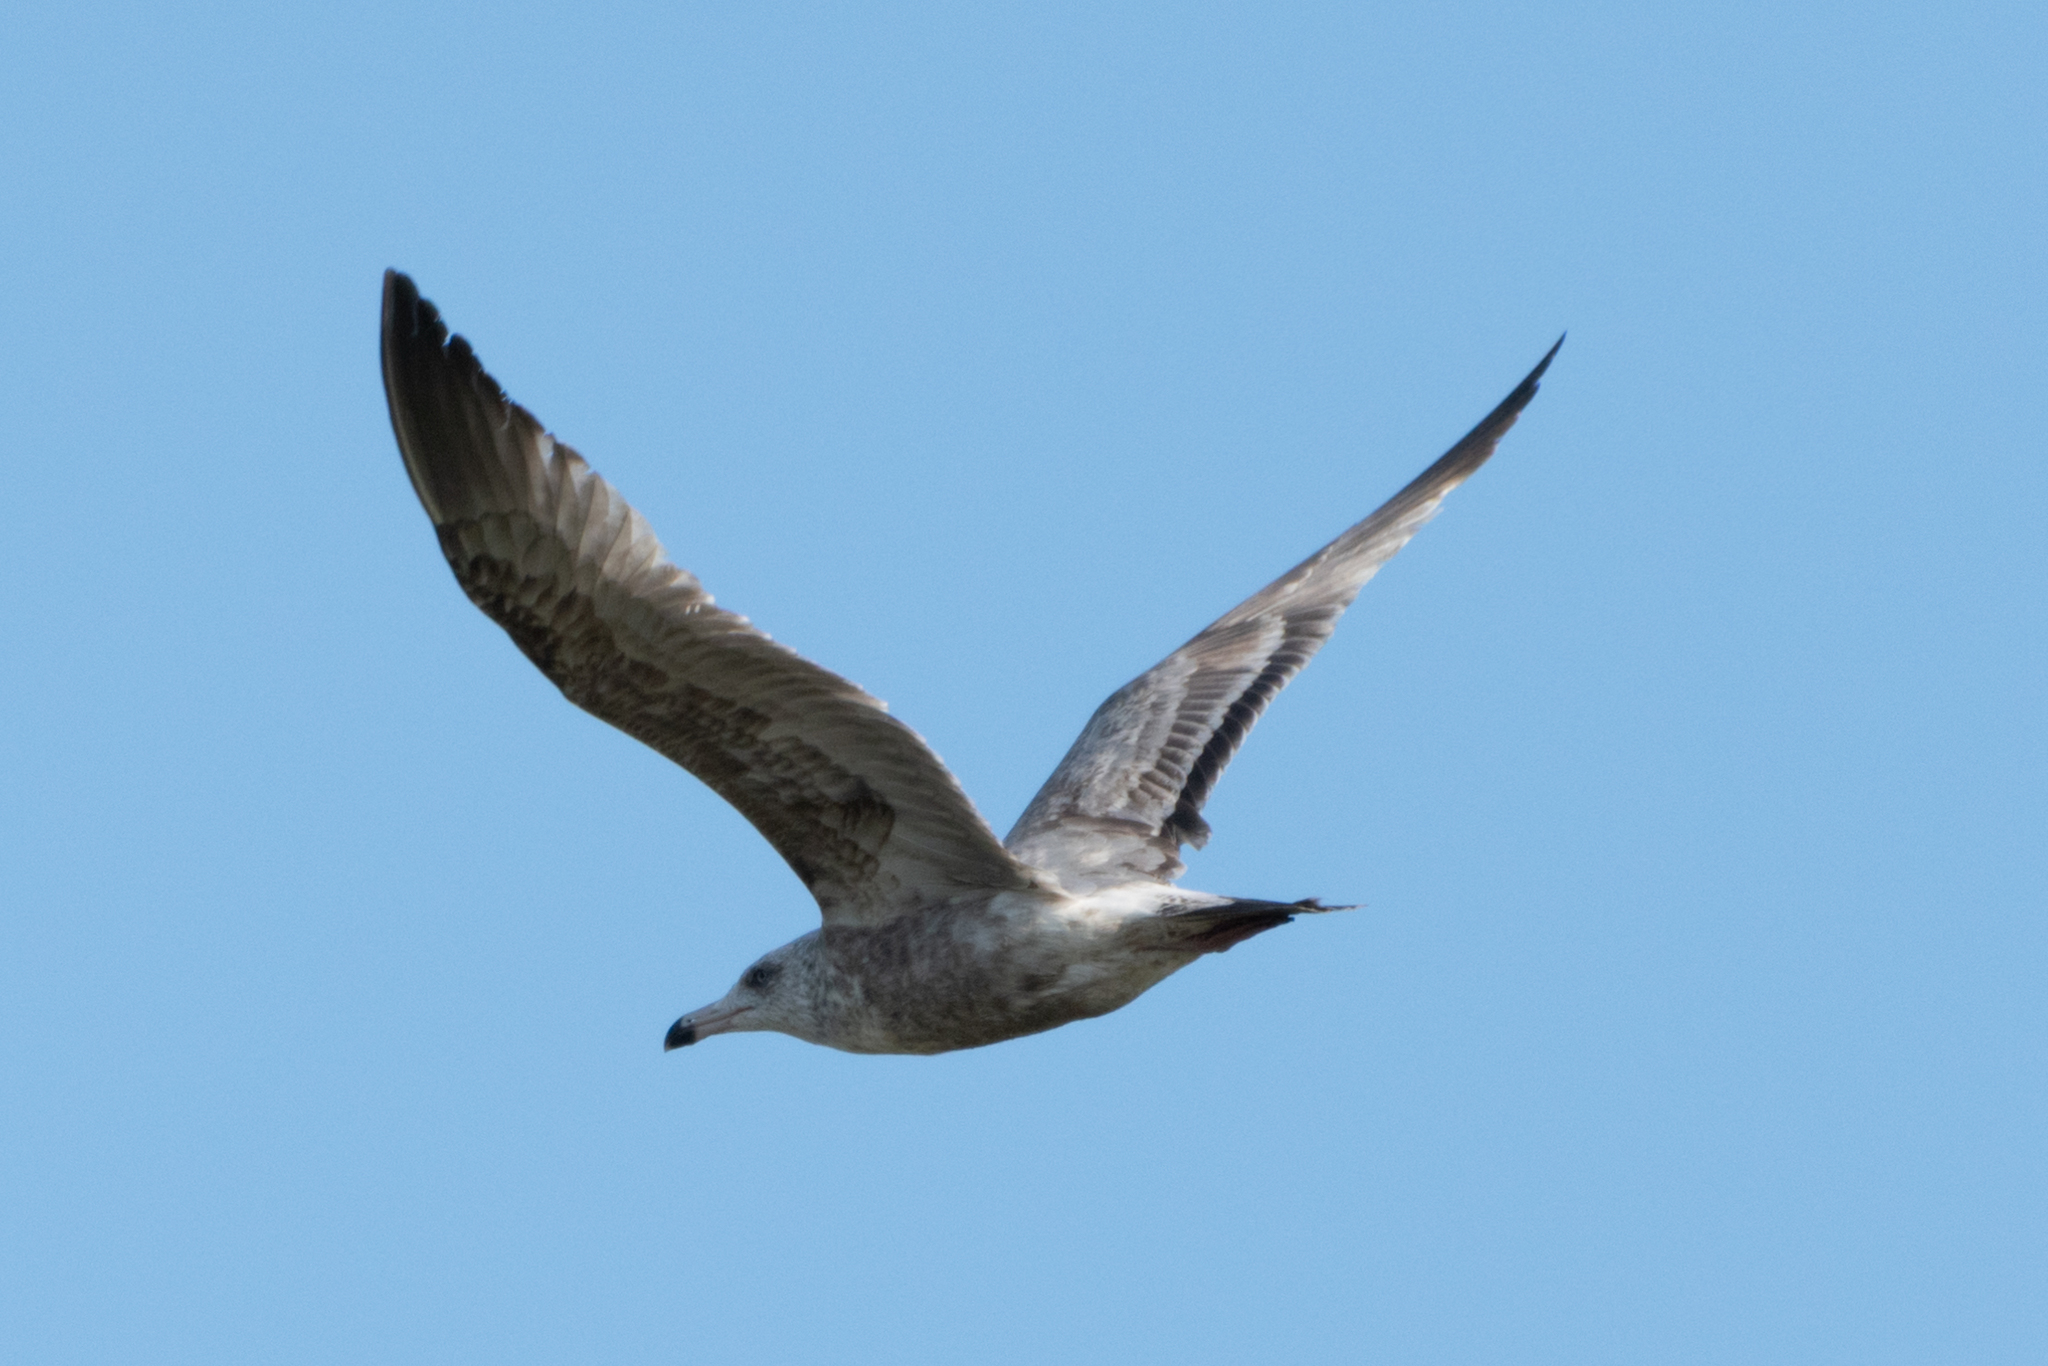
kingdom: Animalia
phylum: Chordata
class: Aves
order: Charadriiformes
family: Laridae
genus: Larus
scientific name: Larus argentatus
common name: Herring gull
